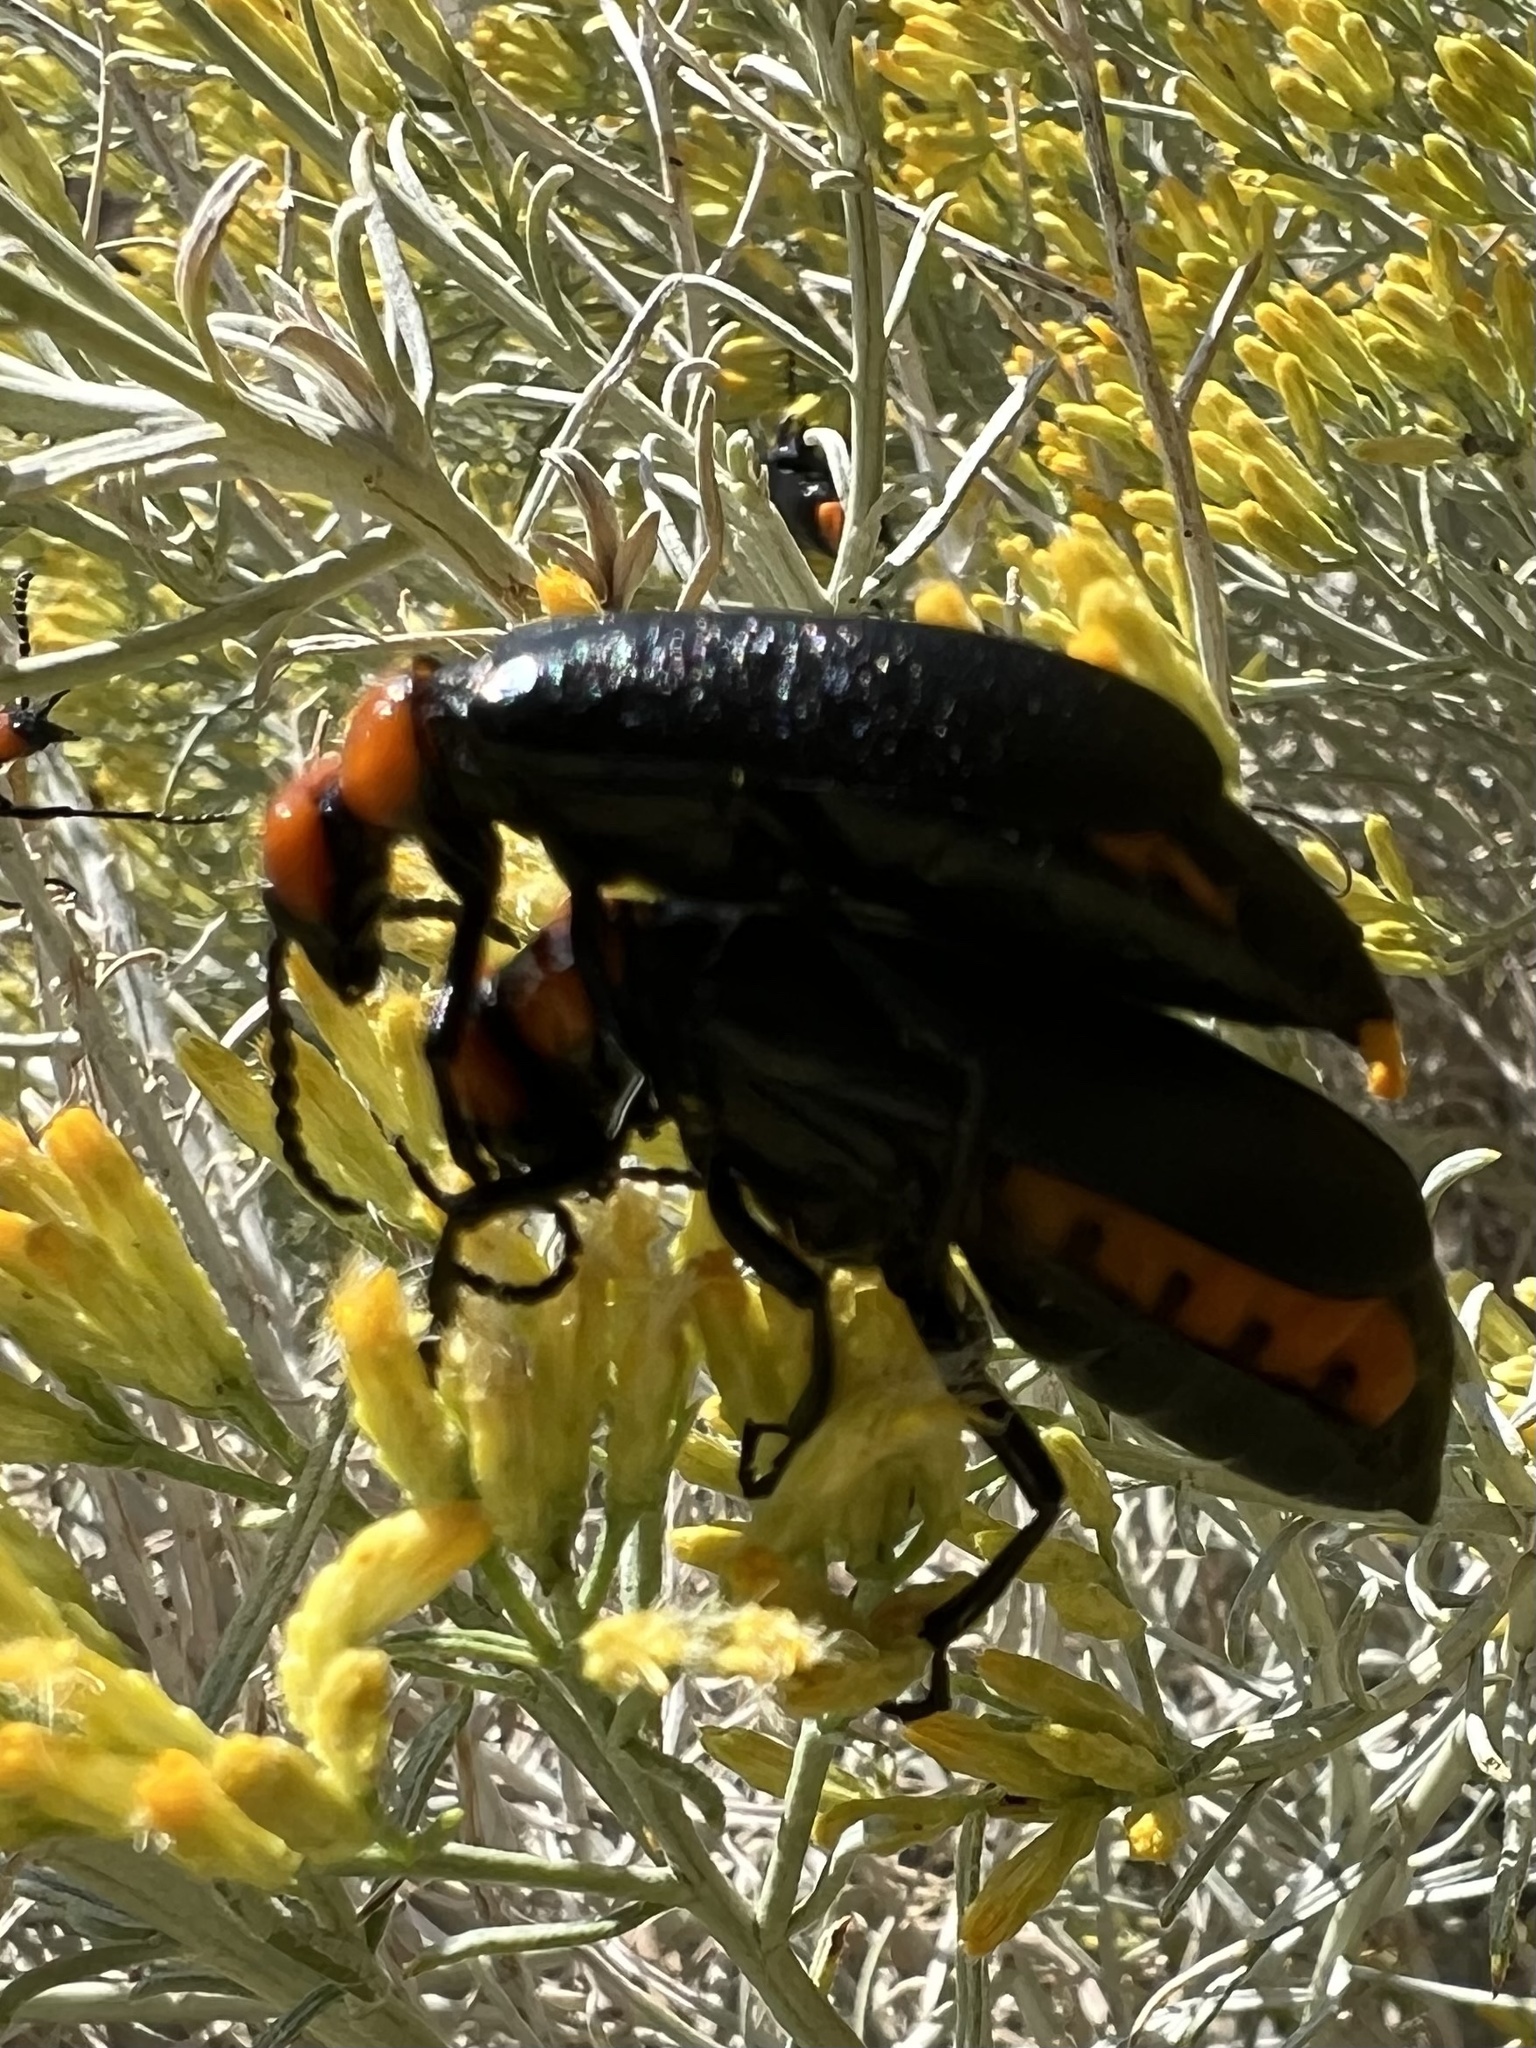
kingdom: Animalia
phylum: Arthropoda
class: Insecta
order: Coleoptera
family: Meloidae
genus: Lytta
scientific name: Lytta vulnerata
